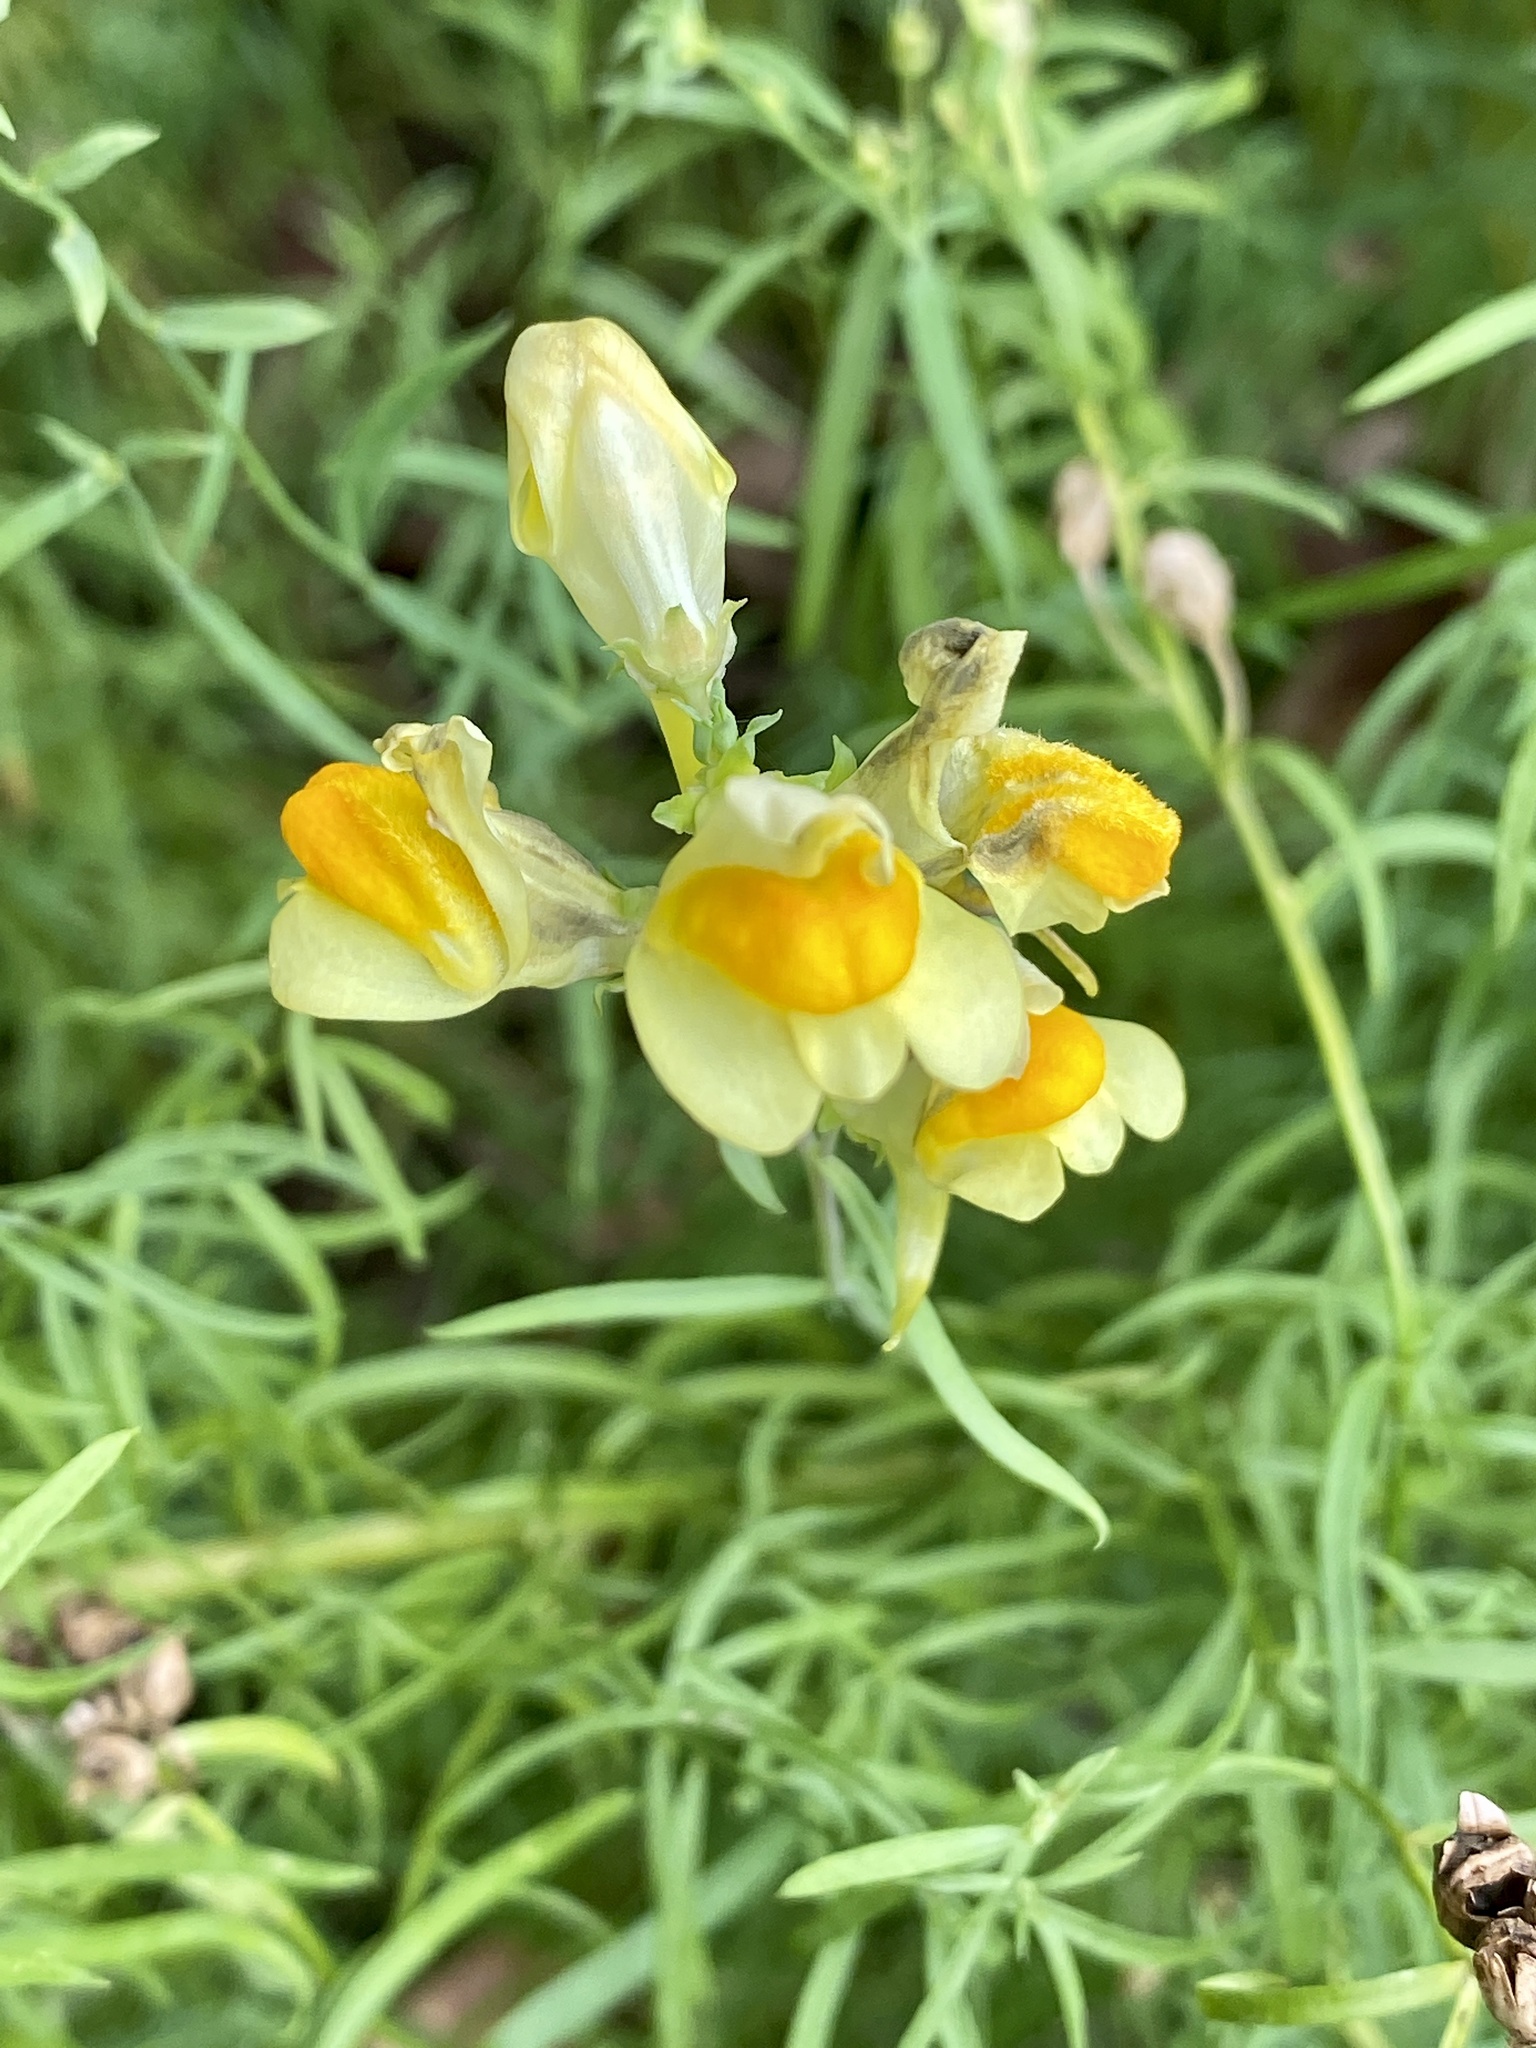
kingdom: Plantae
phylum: Tracheophyta
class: Magnoliopsida
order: Lamiales
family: Plantaginaceae
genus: Linaria
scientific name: Linaria vulgaris
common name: Butter and eggs
